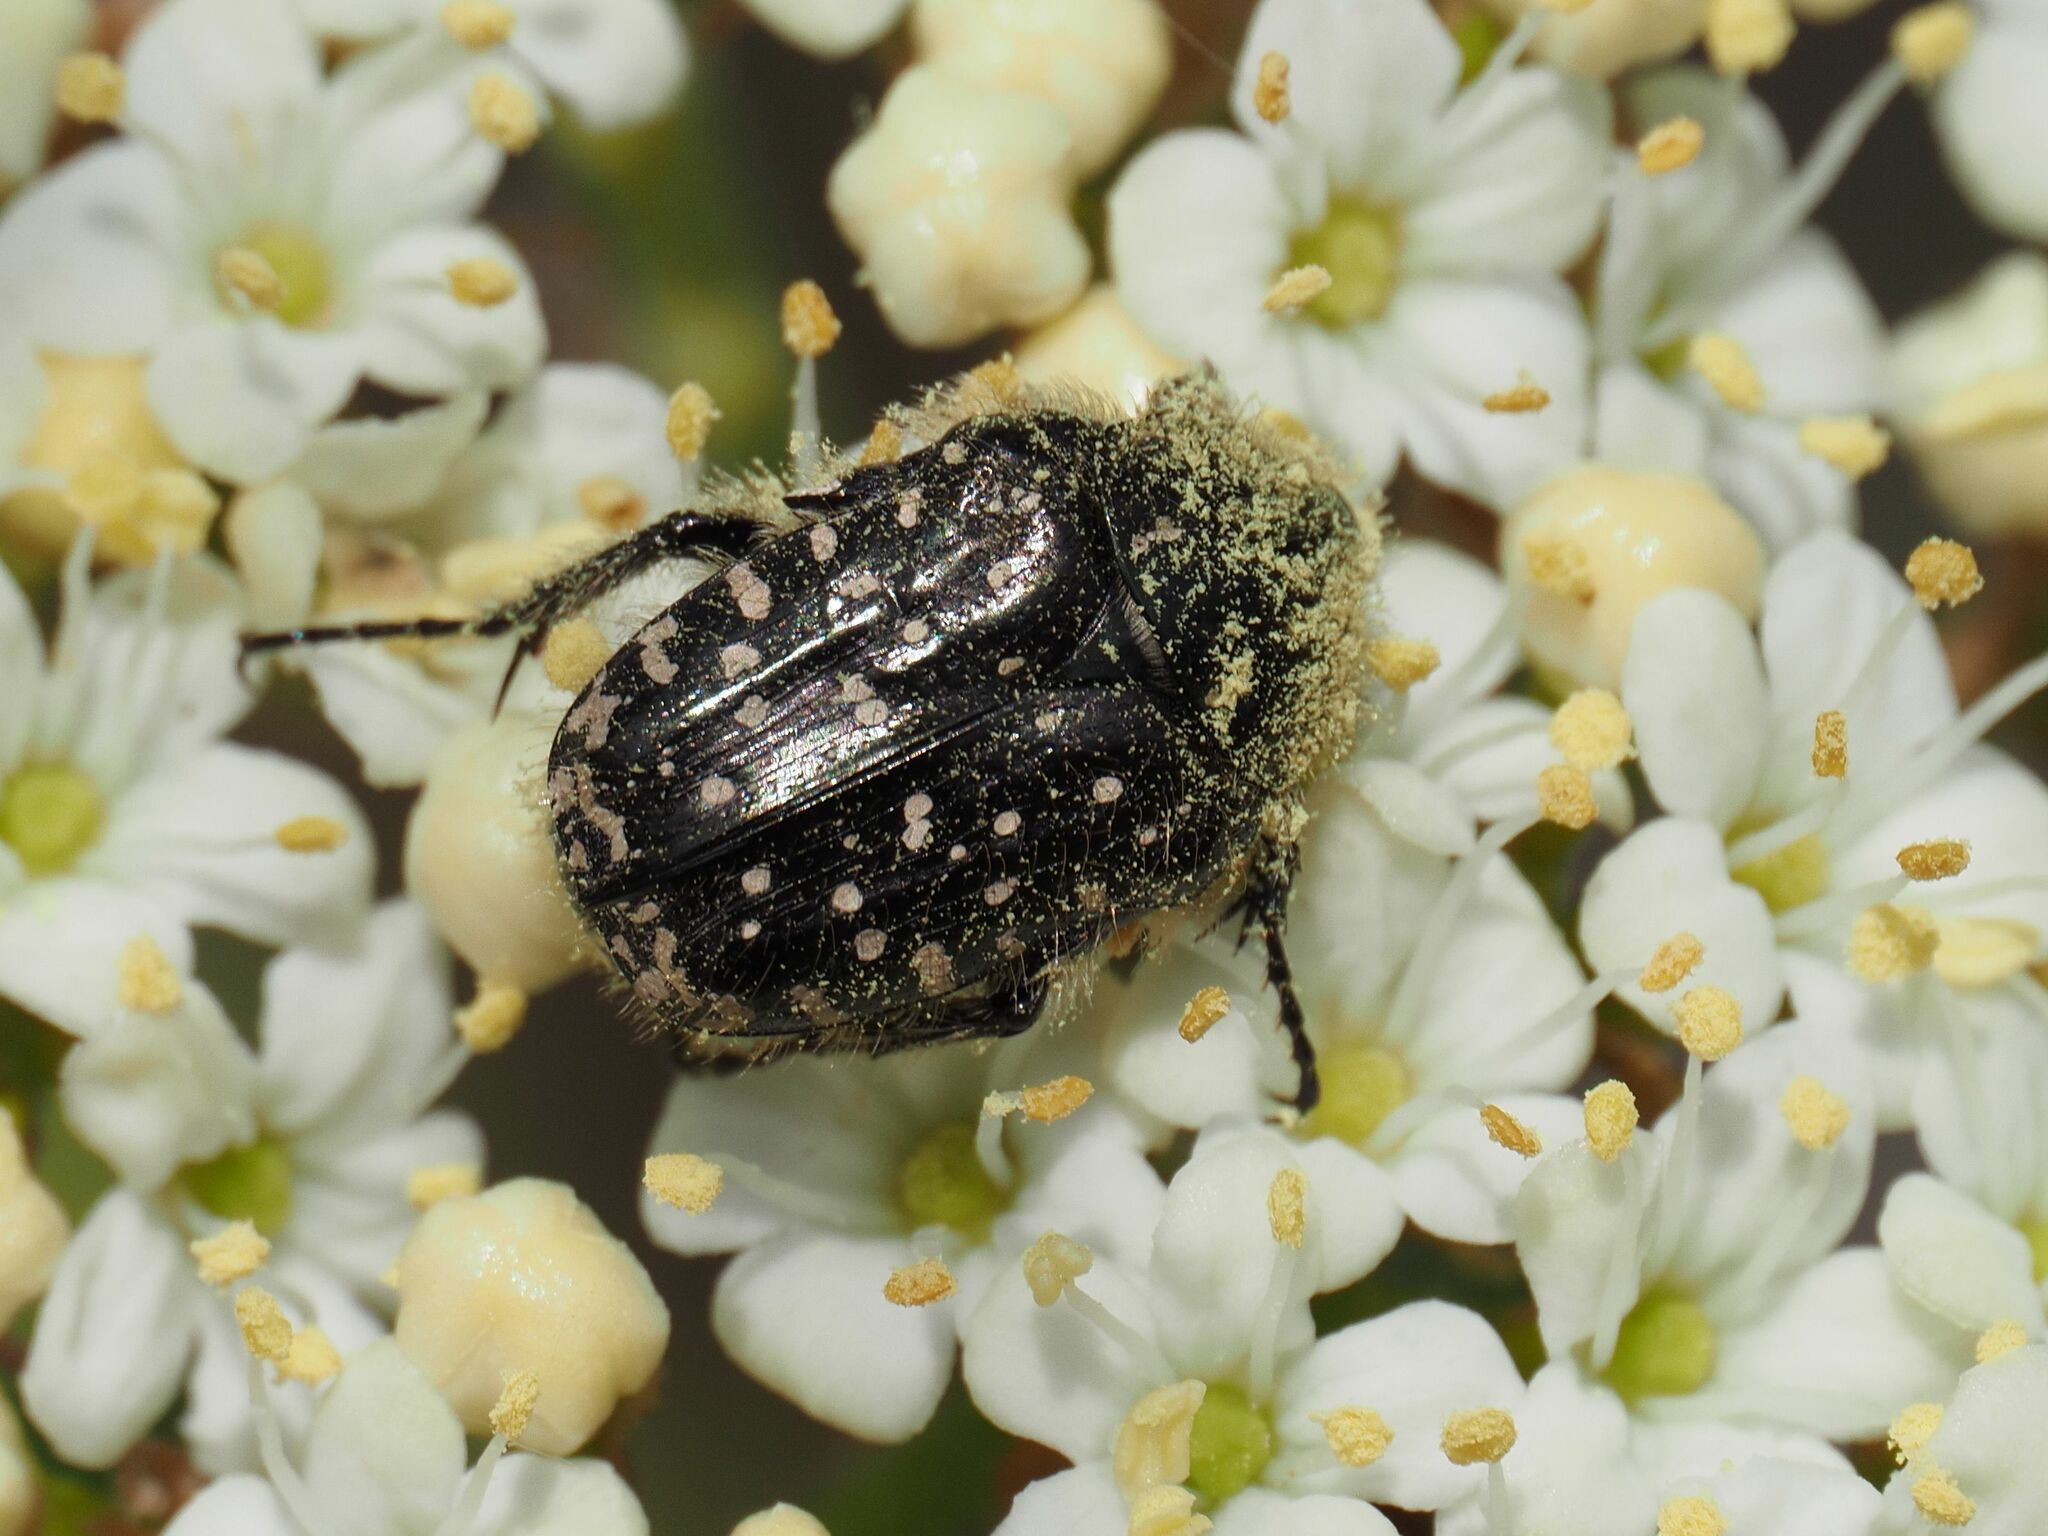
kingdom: Animalia
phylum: Arthropoda
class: Insecta
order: Coleoptera
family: Scarabaeidae
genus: Oxythyrea
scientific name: Oxythyrea funesta
